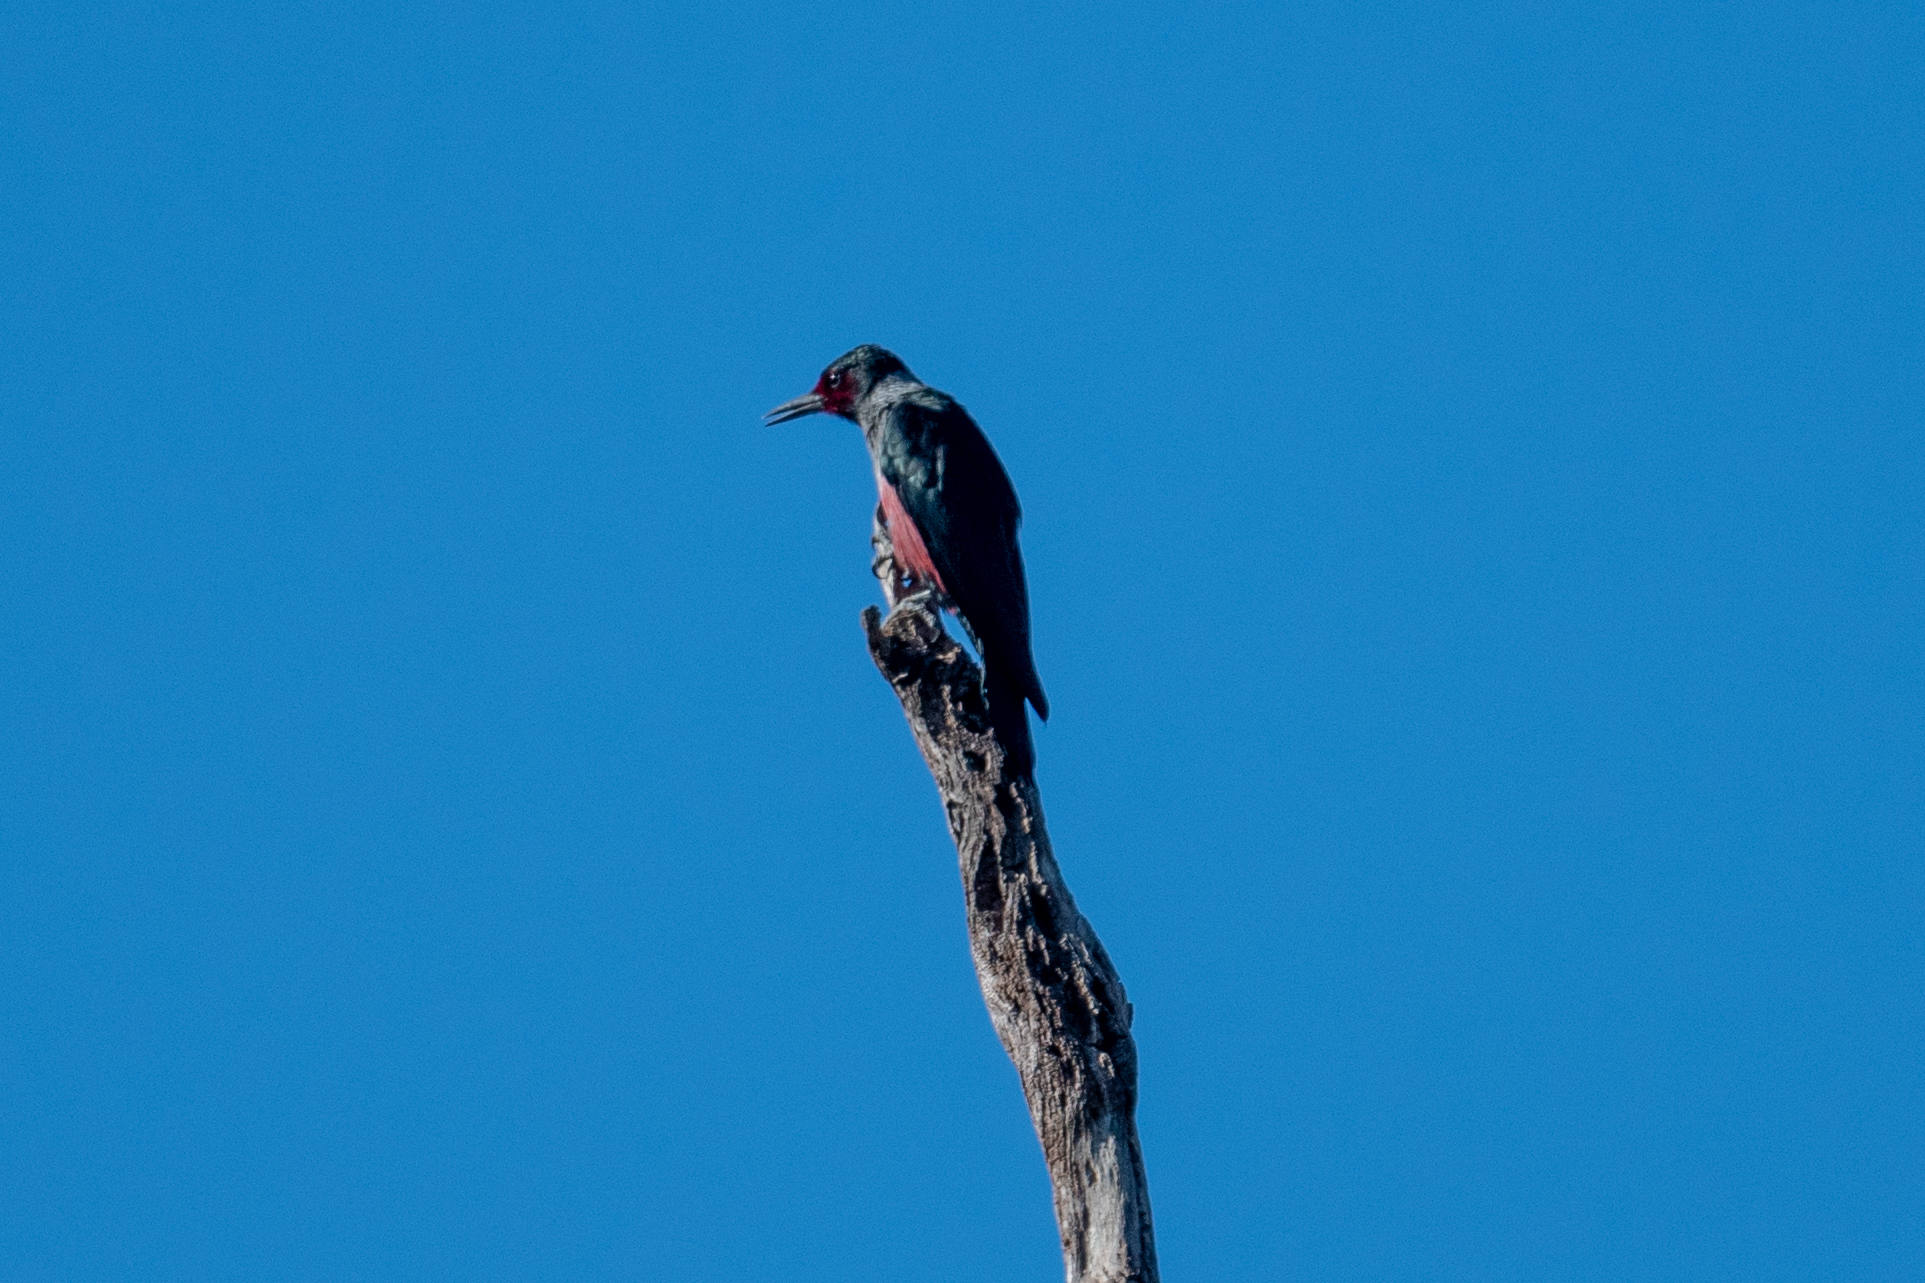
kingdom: Animalia
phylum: Chordata
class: Aves
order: Piciformes
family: Picidae
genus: Melanerpes
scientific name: Melanerpes lewis
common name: Lewis's woodpecker
